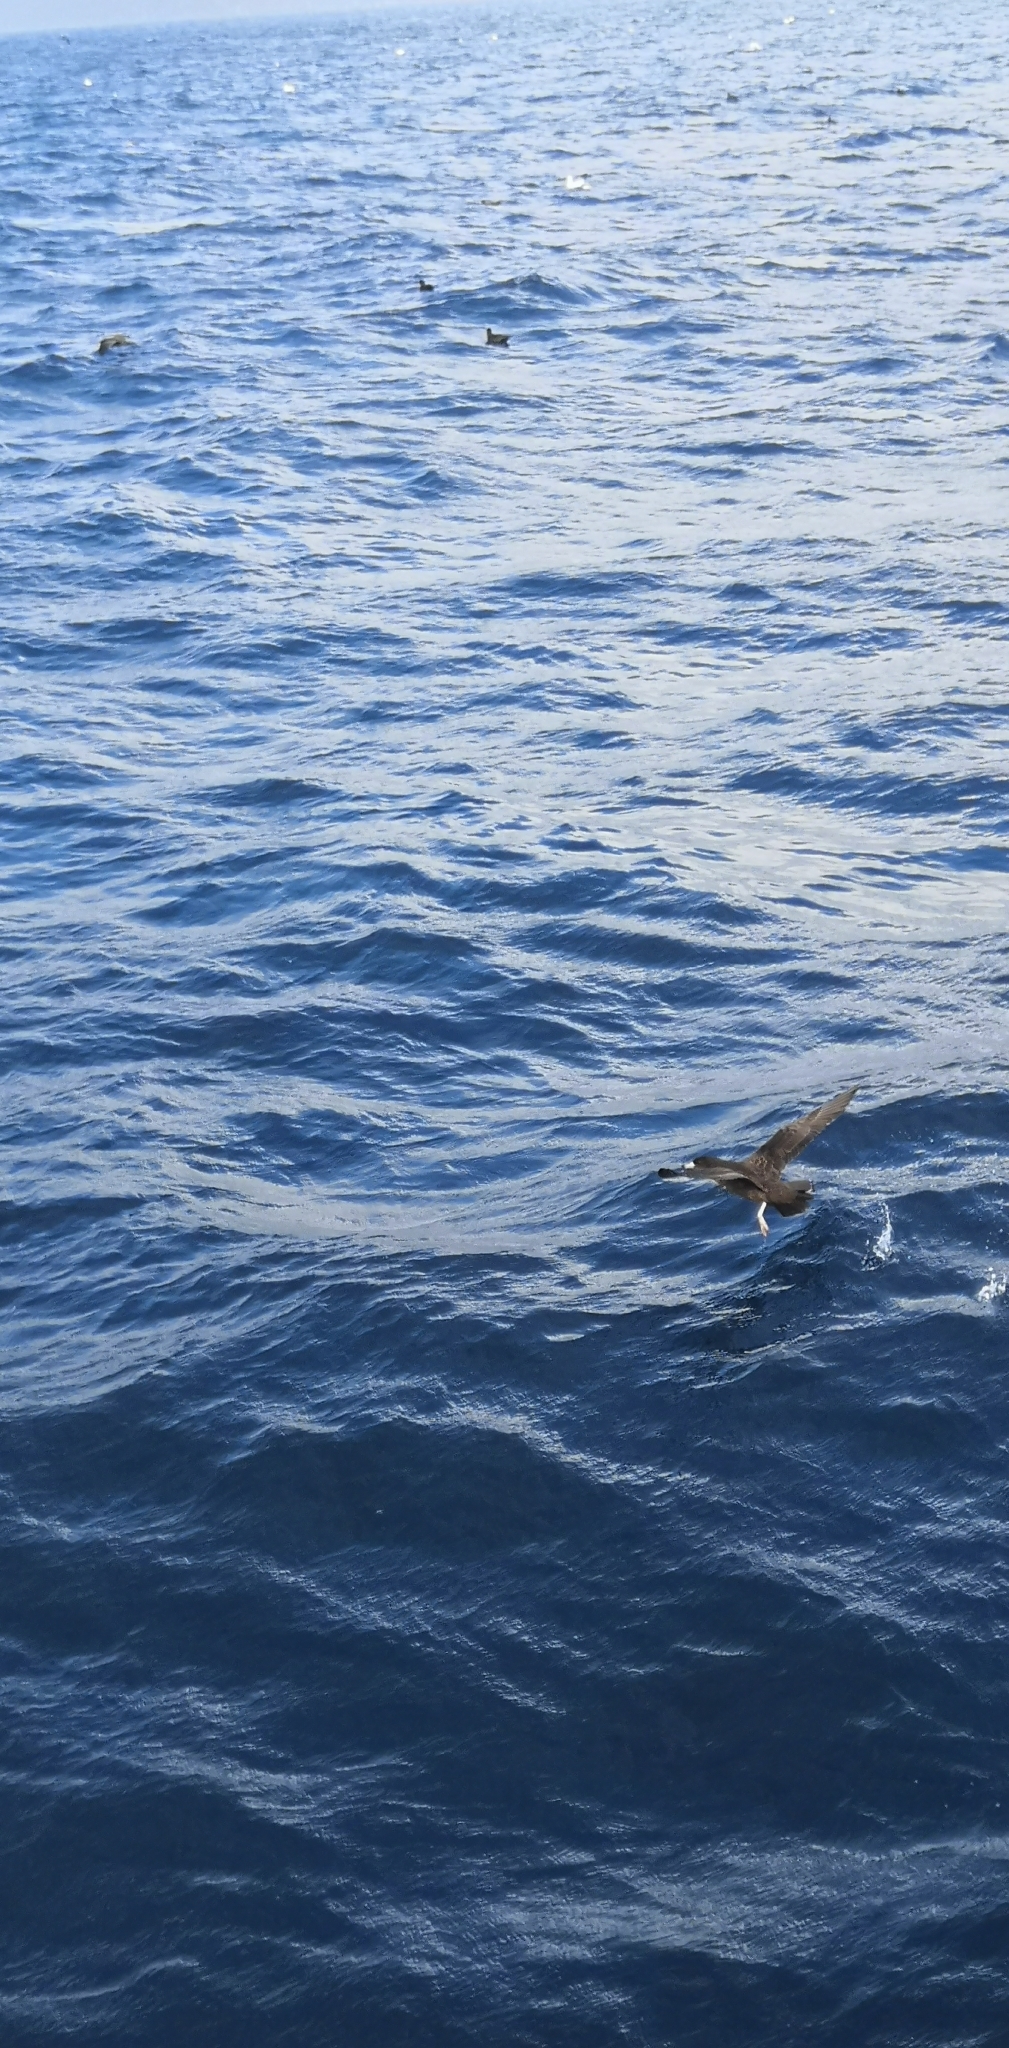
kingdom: Animalia
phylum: Chordata
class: Aves
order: Procellariiformes
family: Procellariidae
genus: Puffinus
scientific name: Puffinus carneipes
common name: Flesh-footed shearwater
